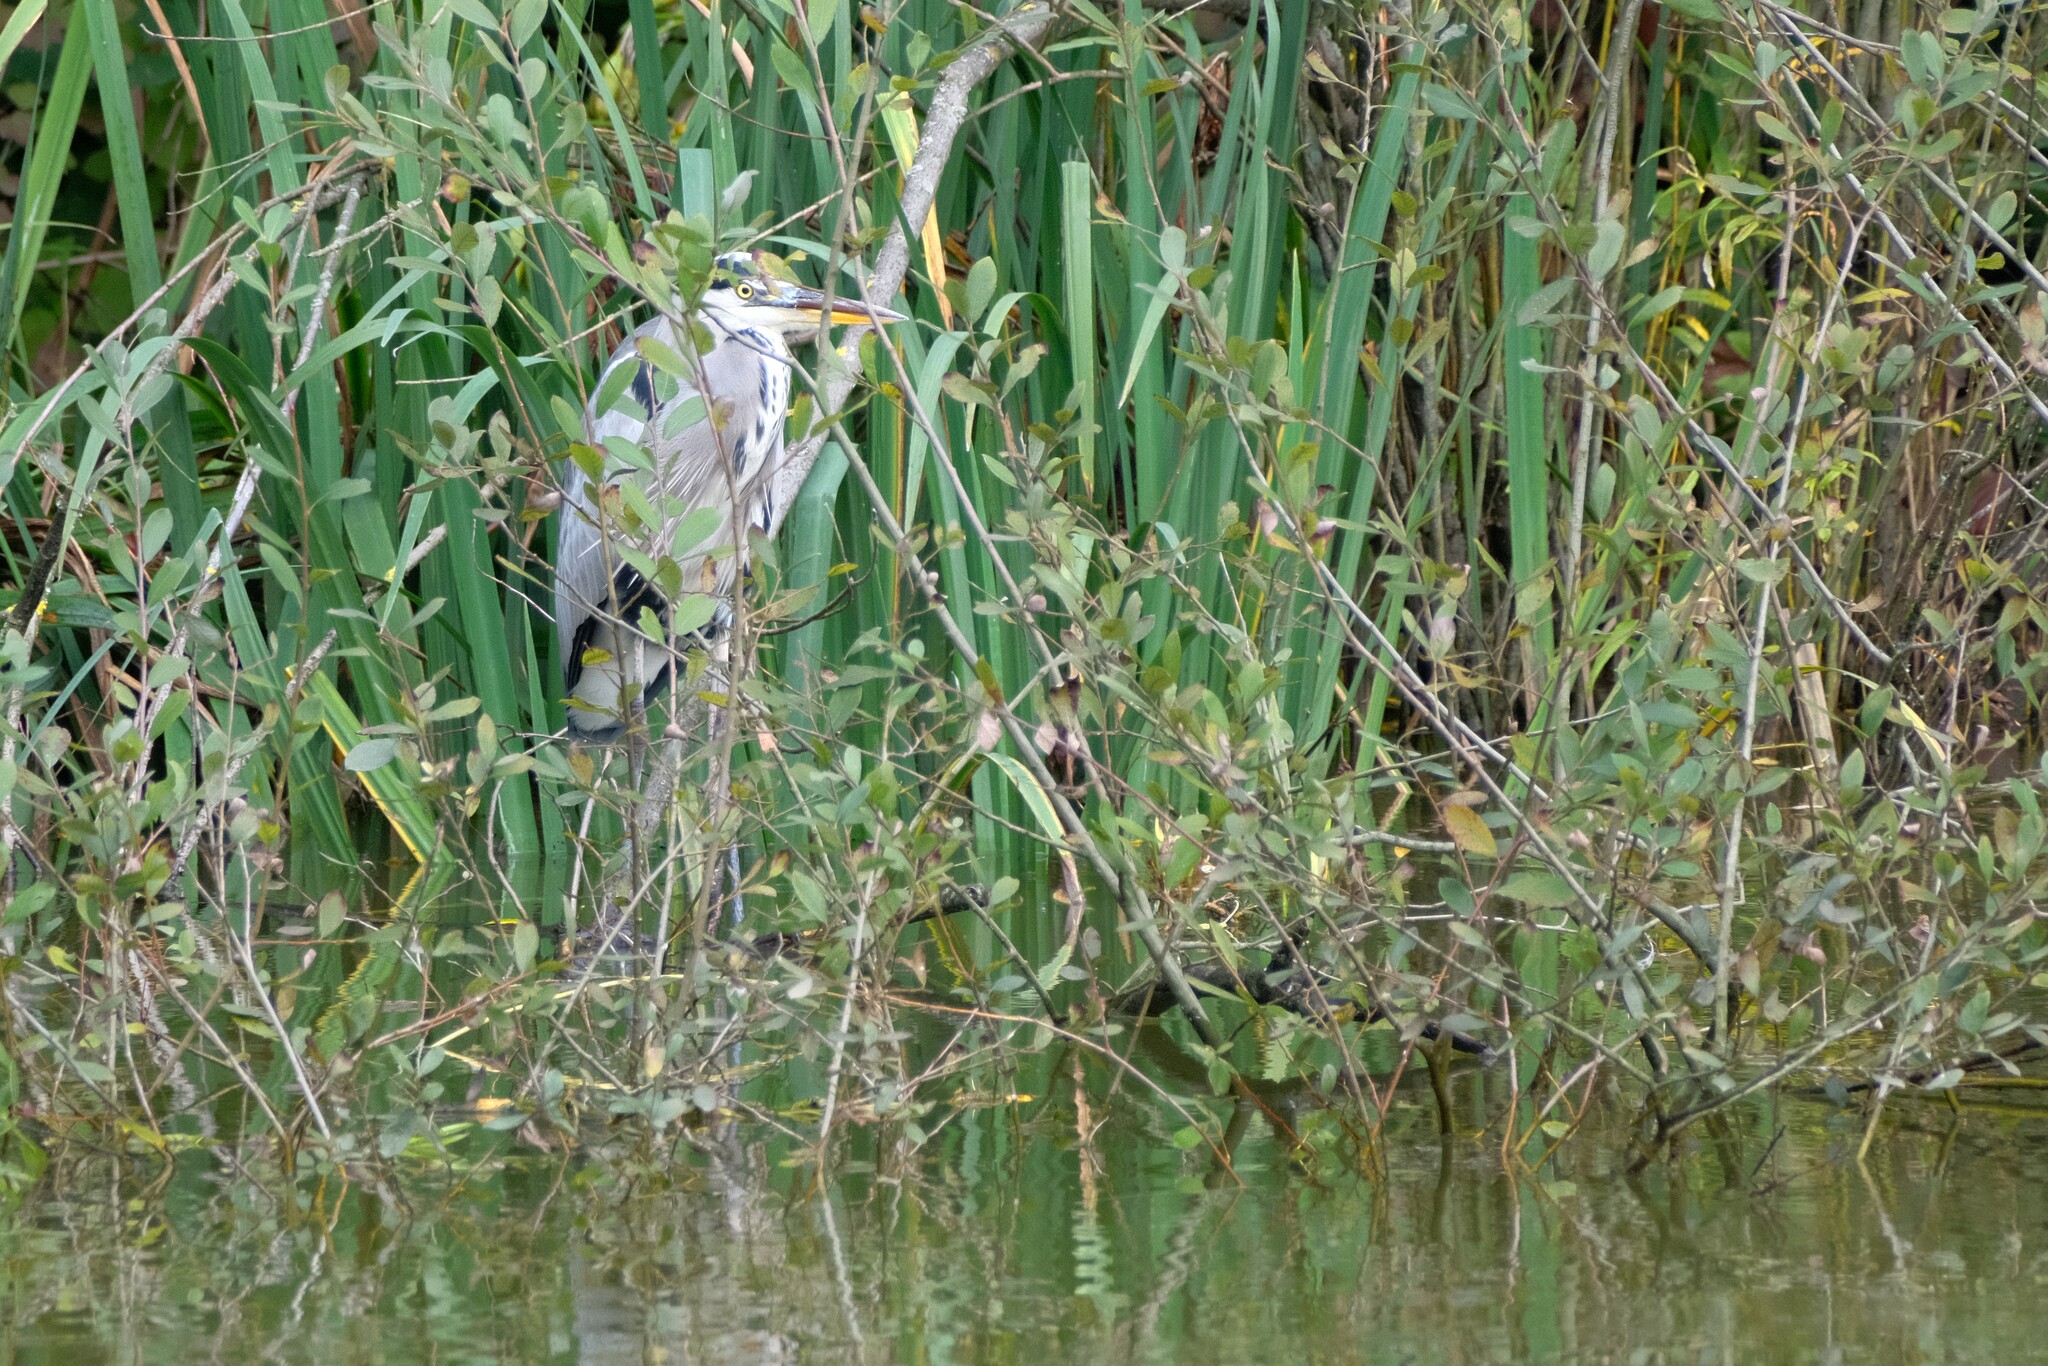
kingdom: Animalia
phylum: Chordata
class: Aves
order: Pelecaniformes
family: Ardeidae
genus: Ardea
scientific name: Ardea cinerea
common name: Grey heron
